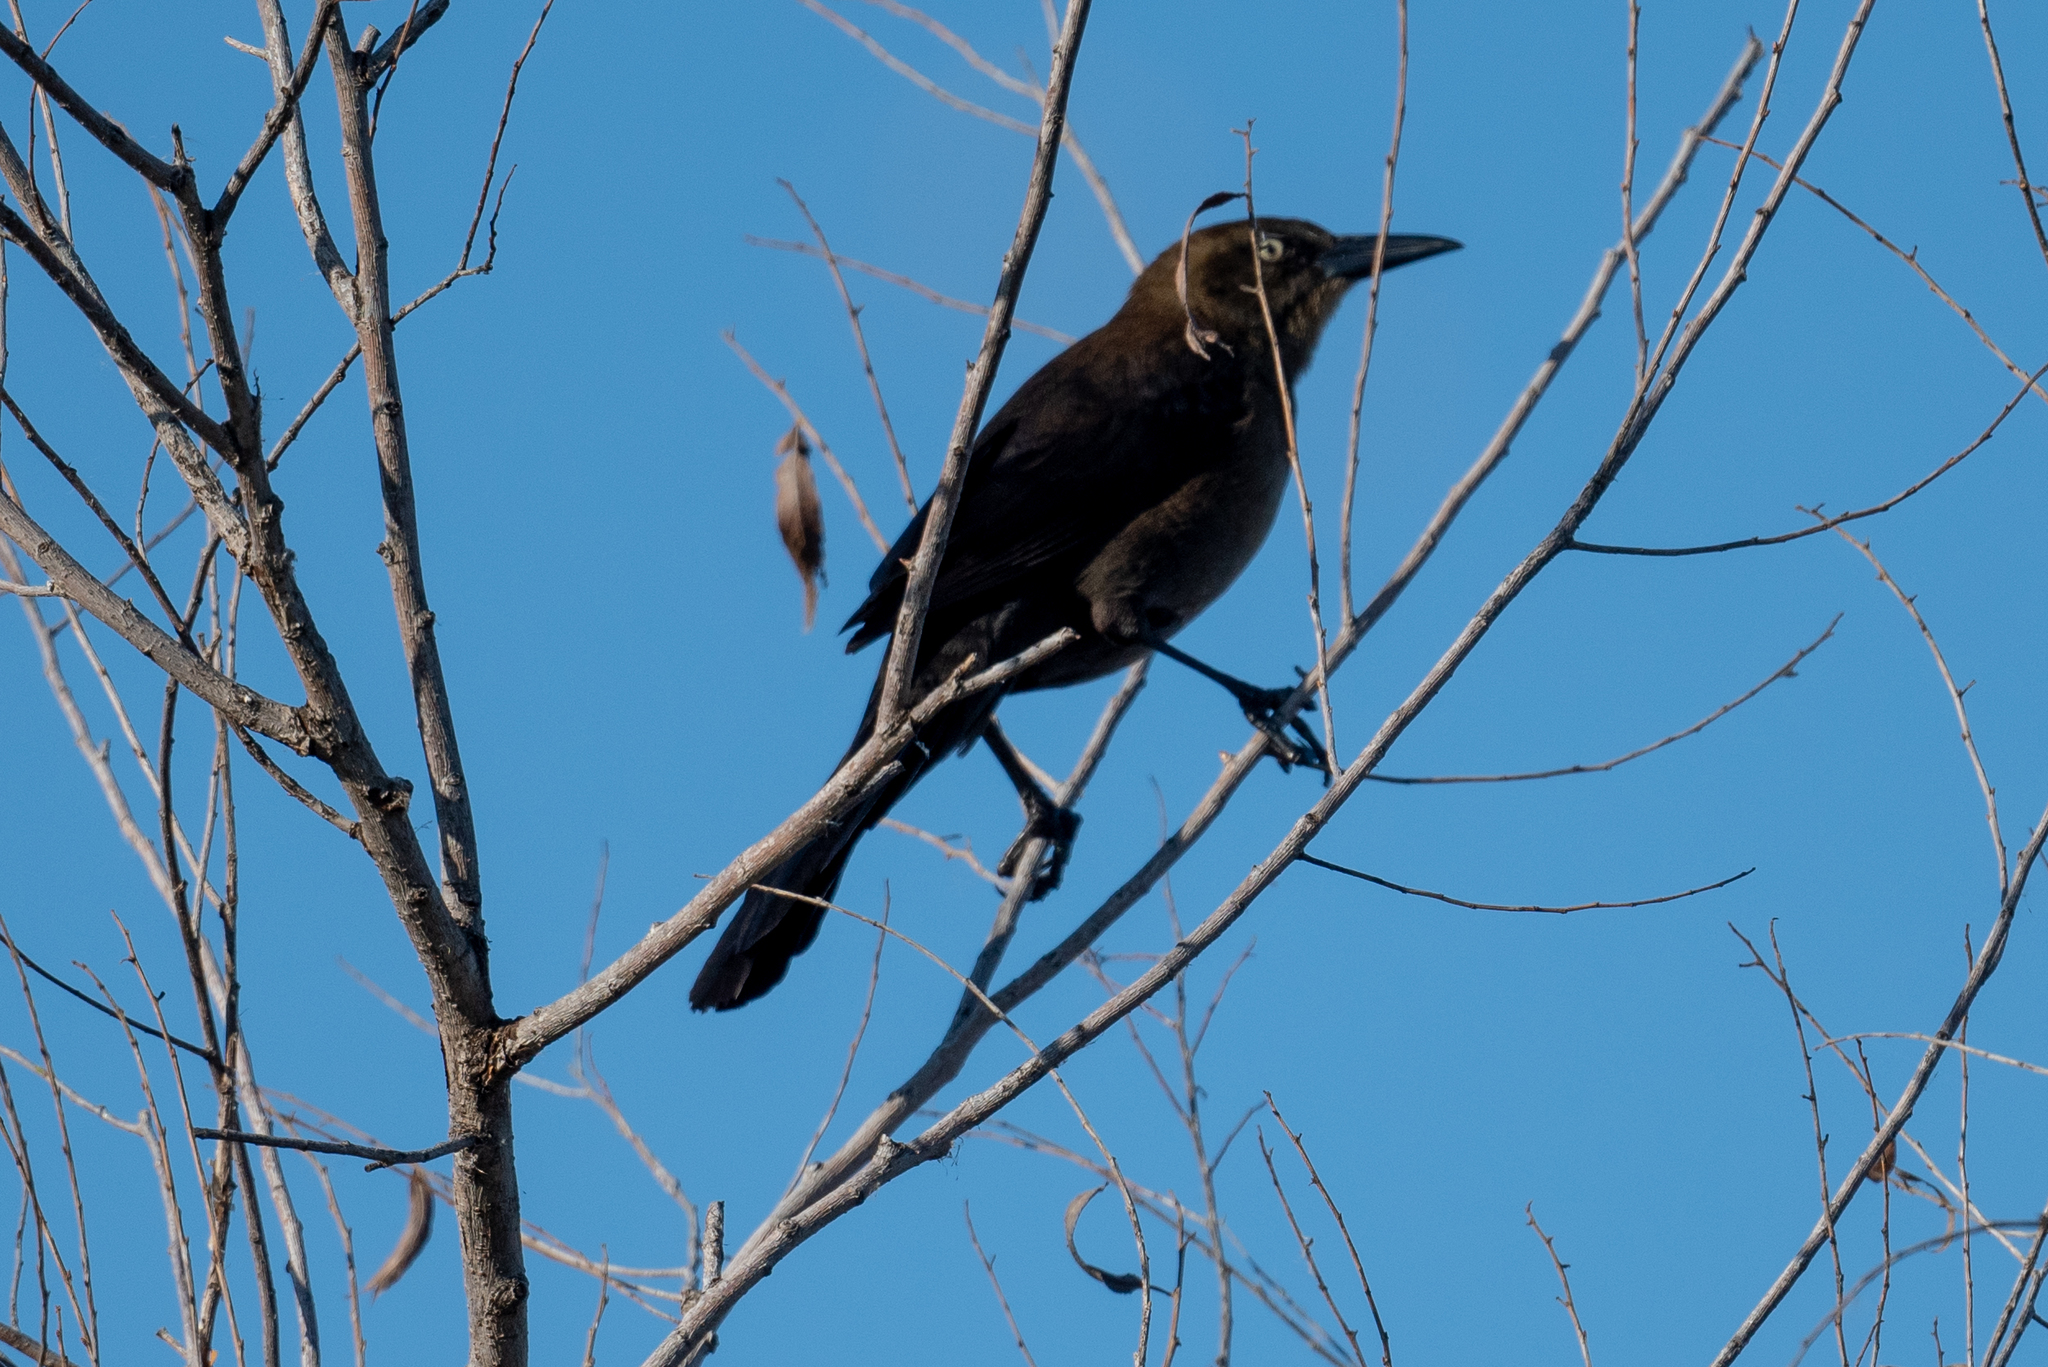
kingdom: Animalia
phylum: Chordata
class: Aves
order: Passeriformes
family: Icteridae
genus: Quiscalus
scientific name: Quiscalus mexicanus
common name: Great-tailed grackle
